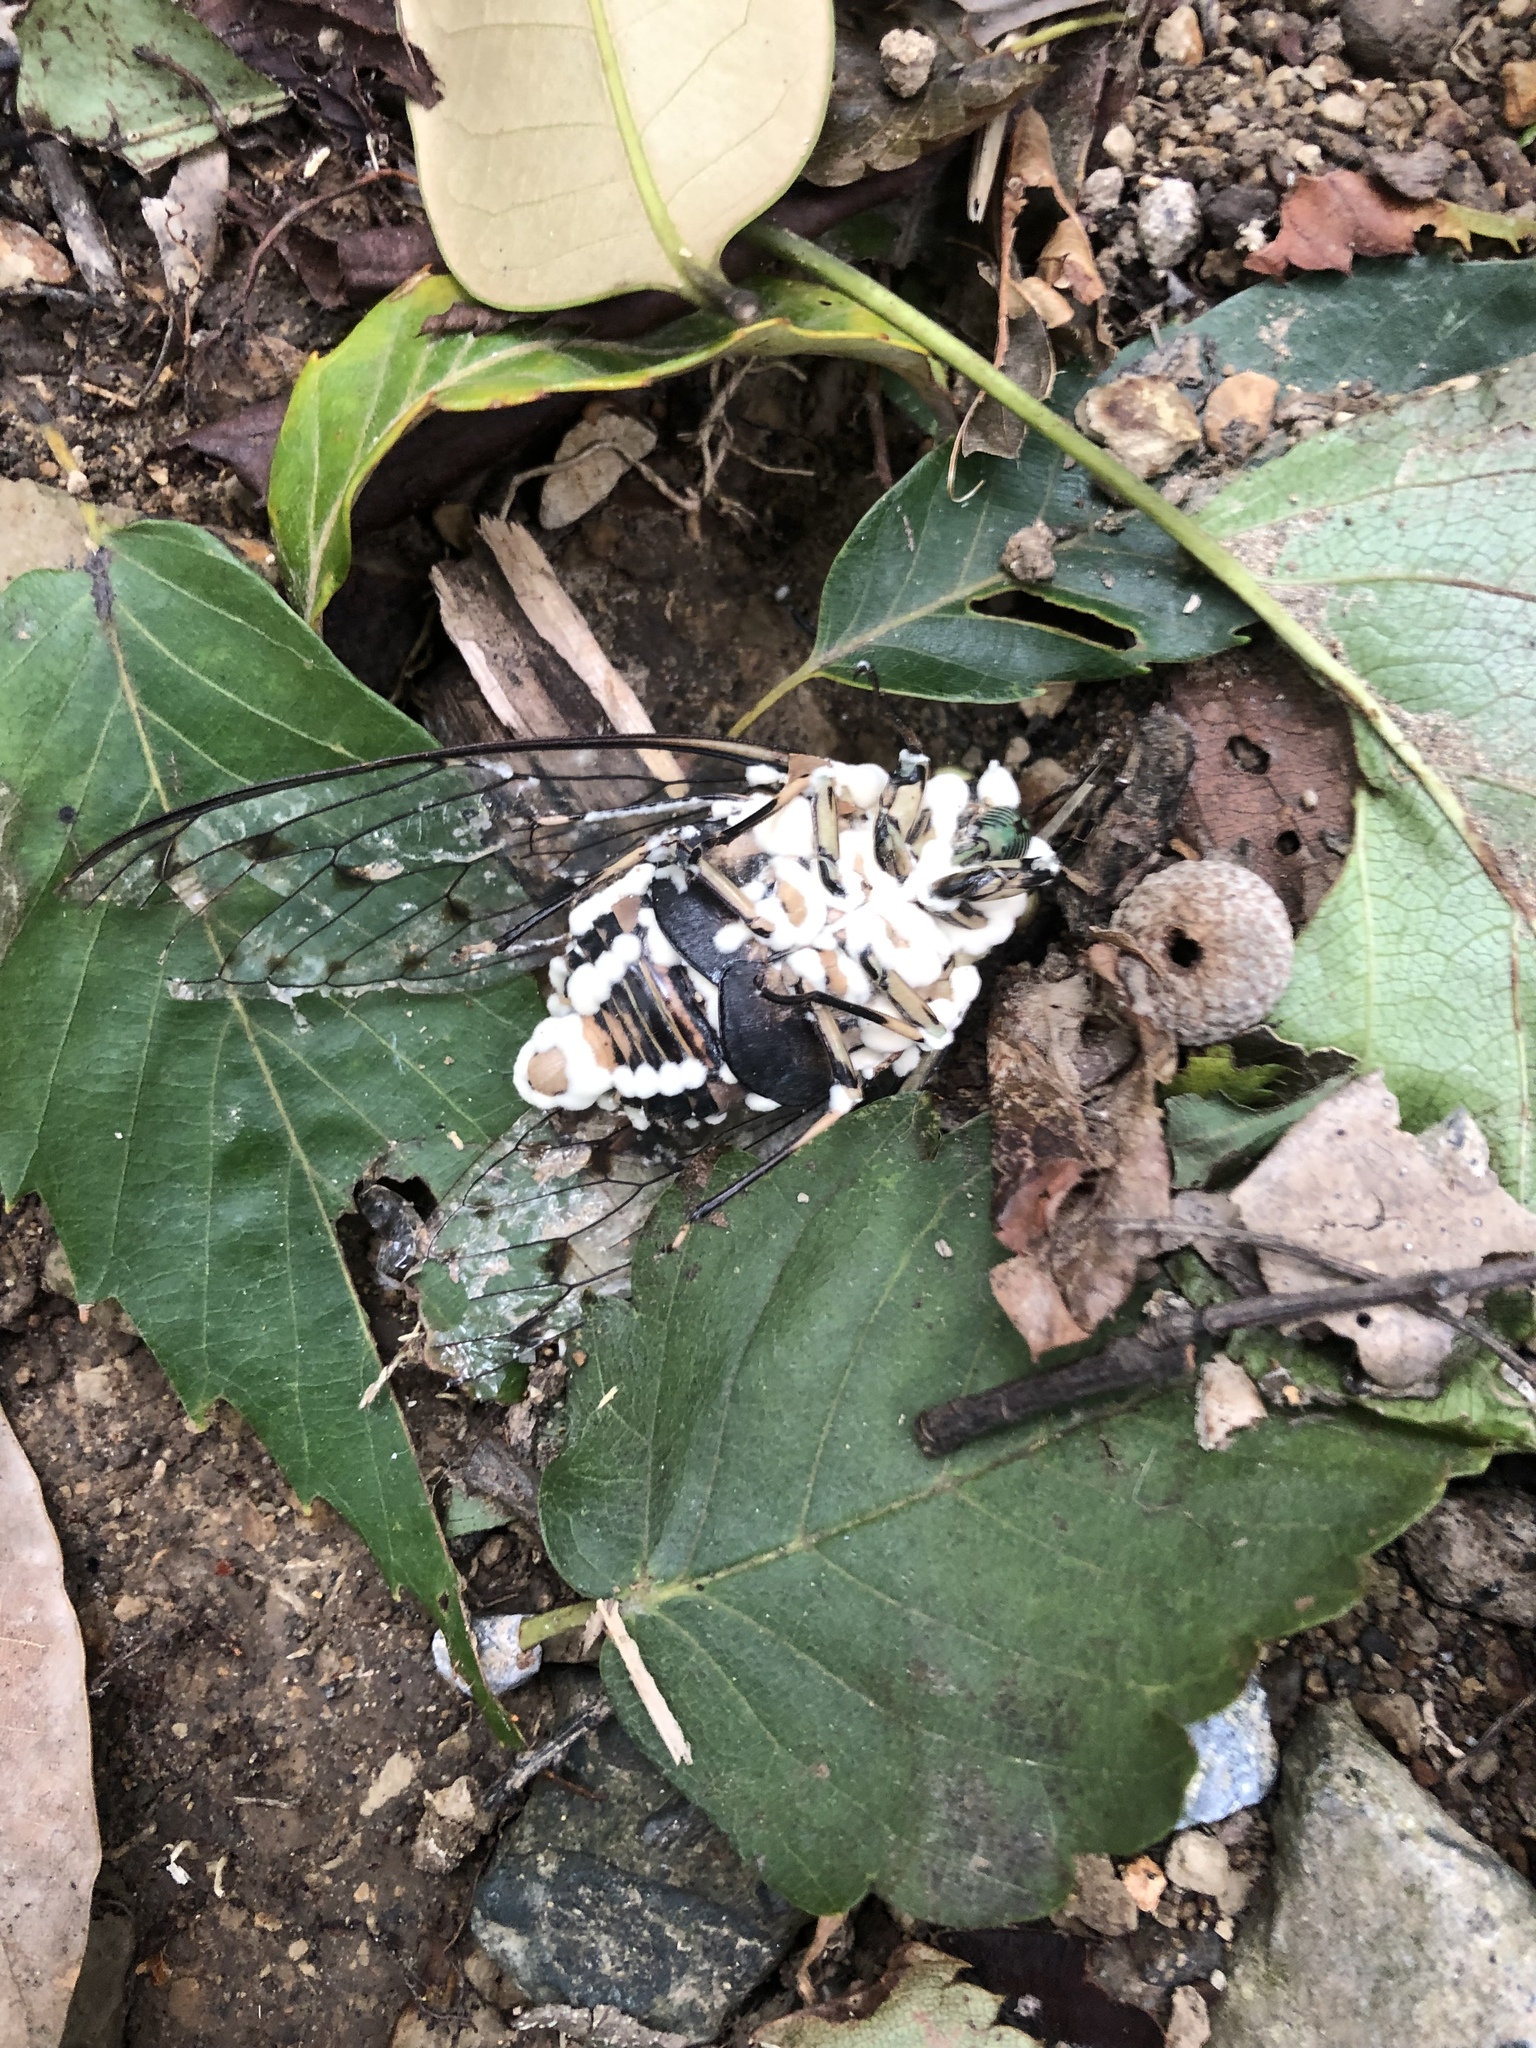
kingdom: Animalia
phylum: Arthropoda
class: Insecta
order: Hemiptera
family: Cicadidae
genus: Hyalessa
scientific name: Hyalessa maculaticollis
